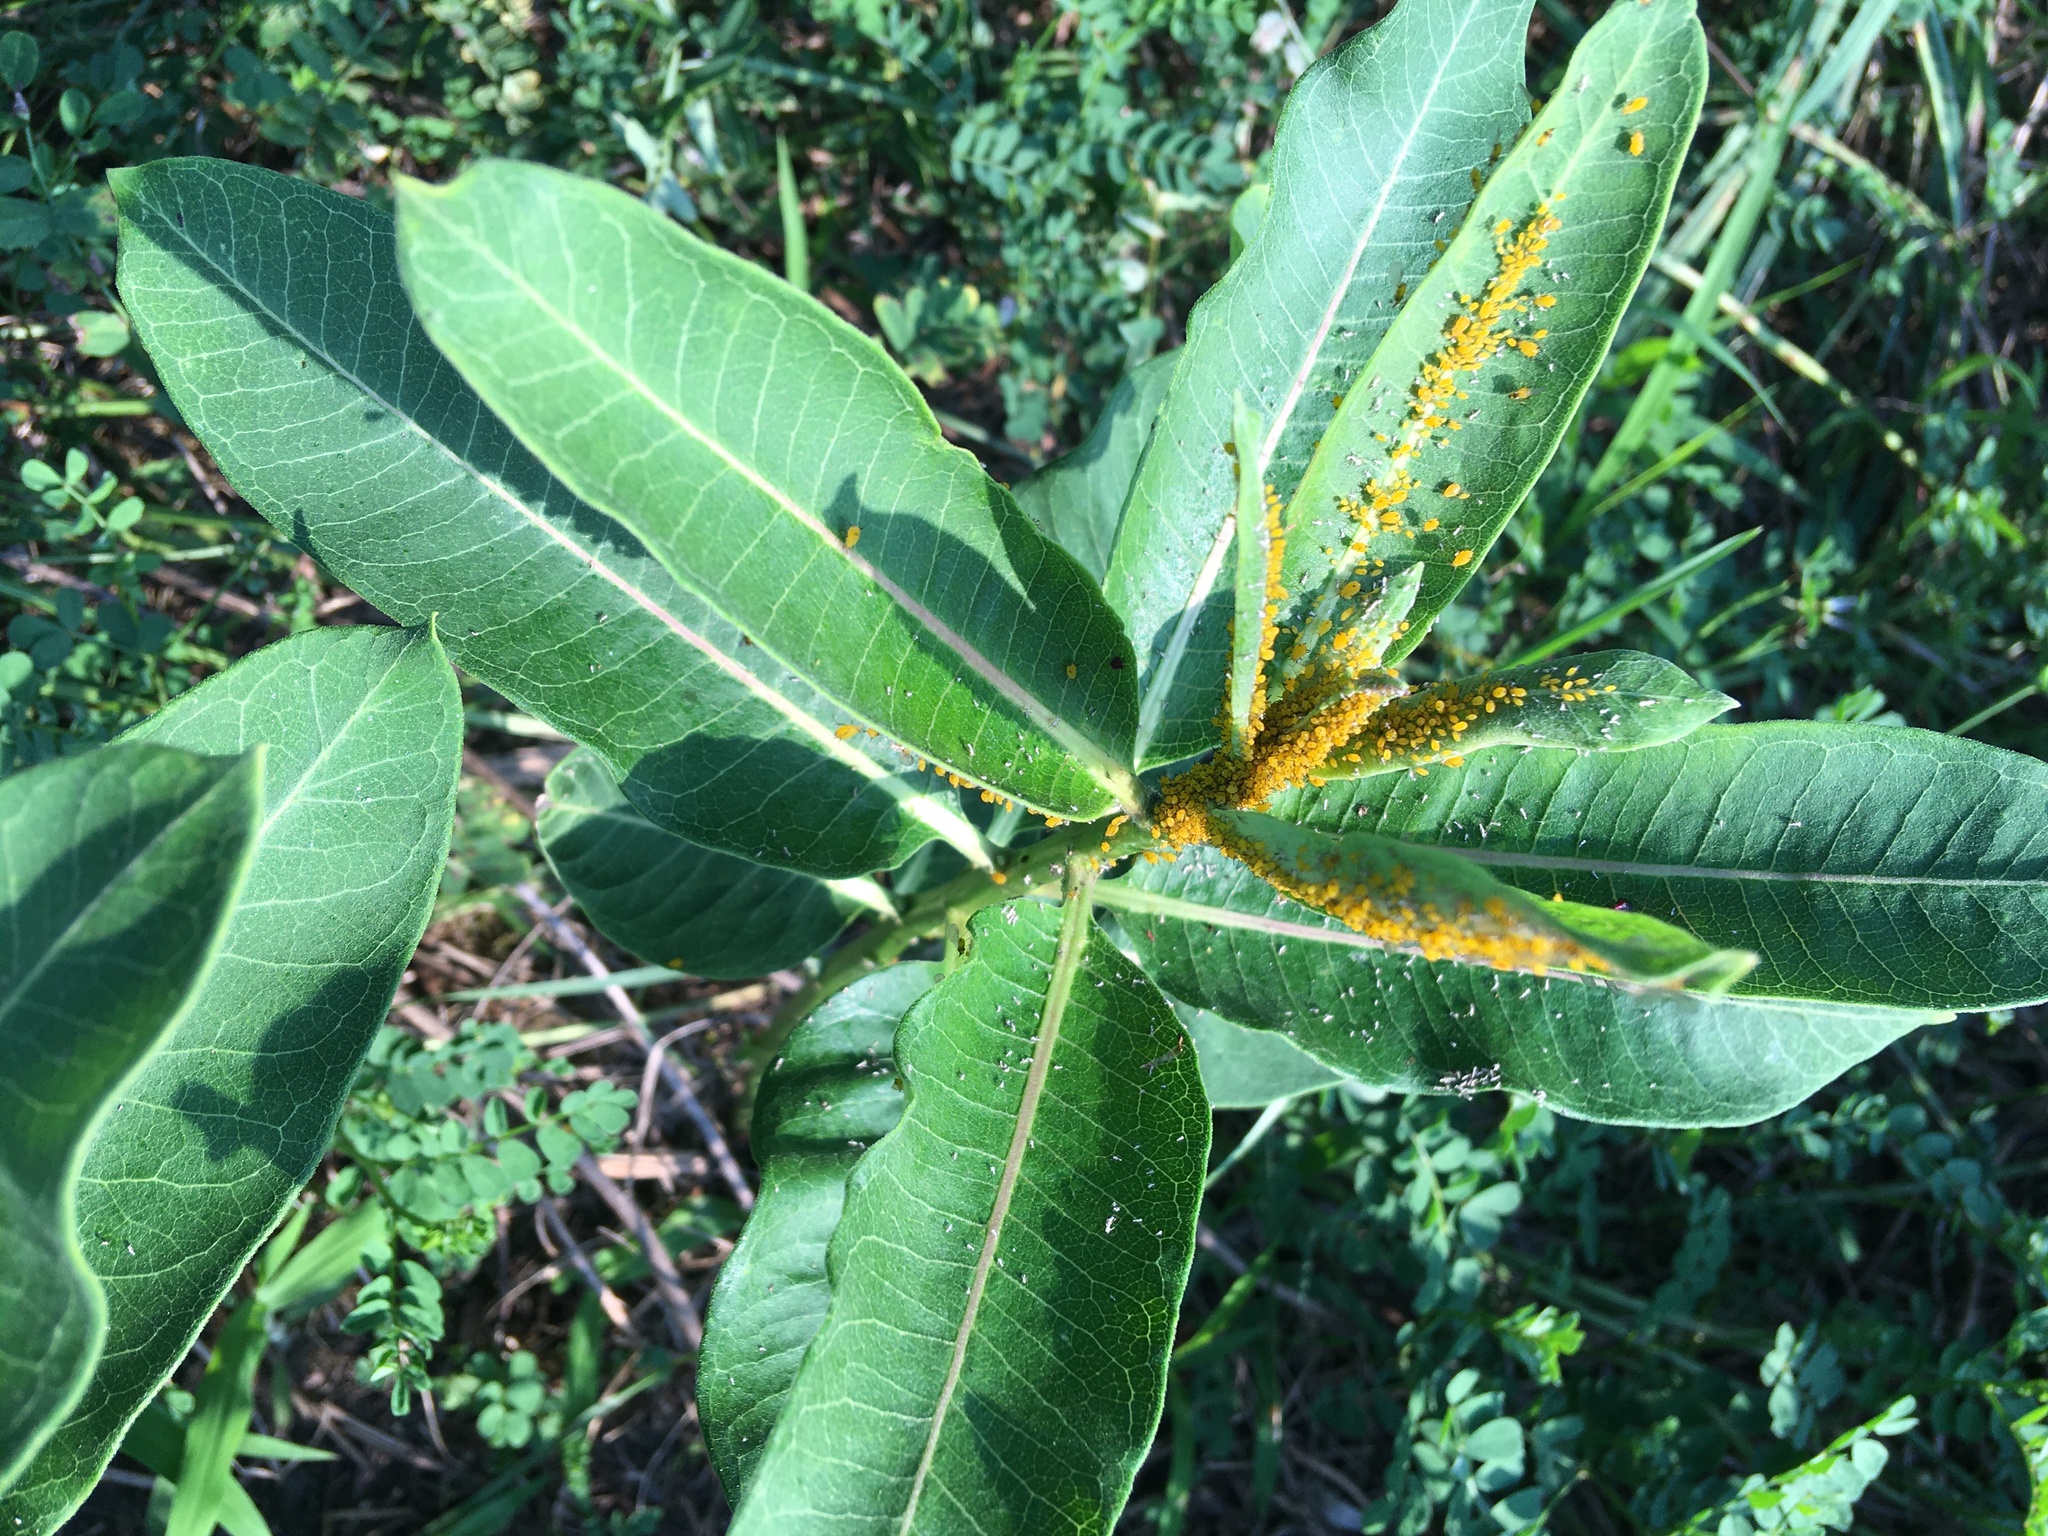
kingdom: Plantae
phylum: Tracheophyta
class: Magnoliopsida
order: Gentianales
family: Apocynaceae
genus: Asclepias
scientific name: Asclepias syriaca
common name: Common milkweed
